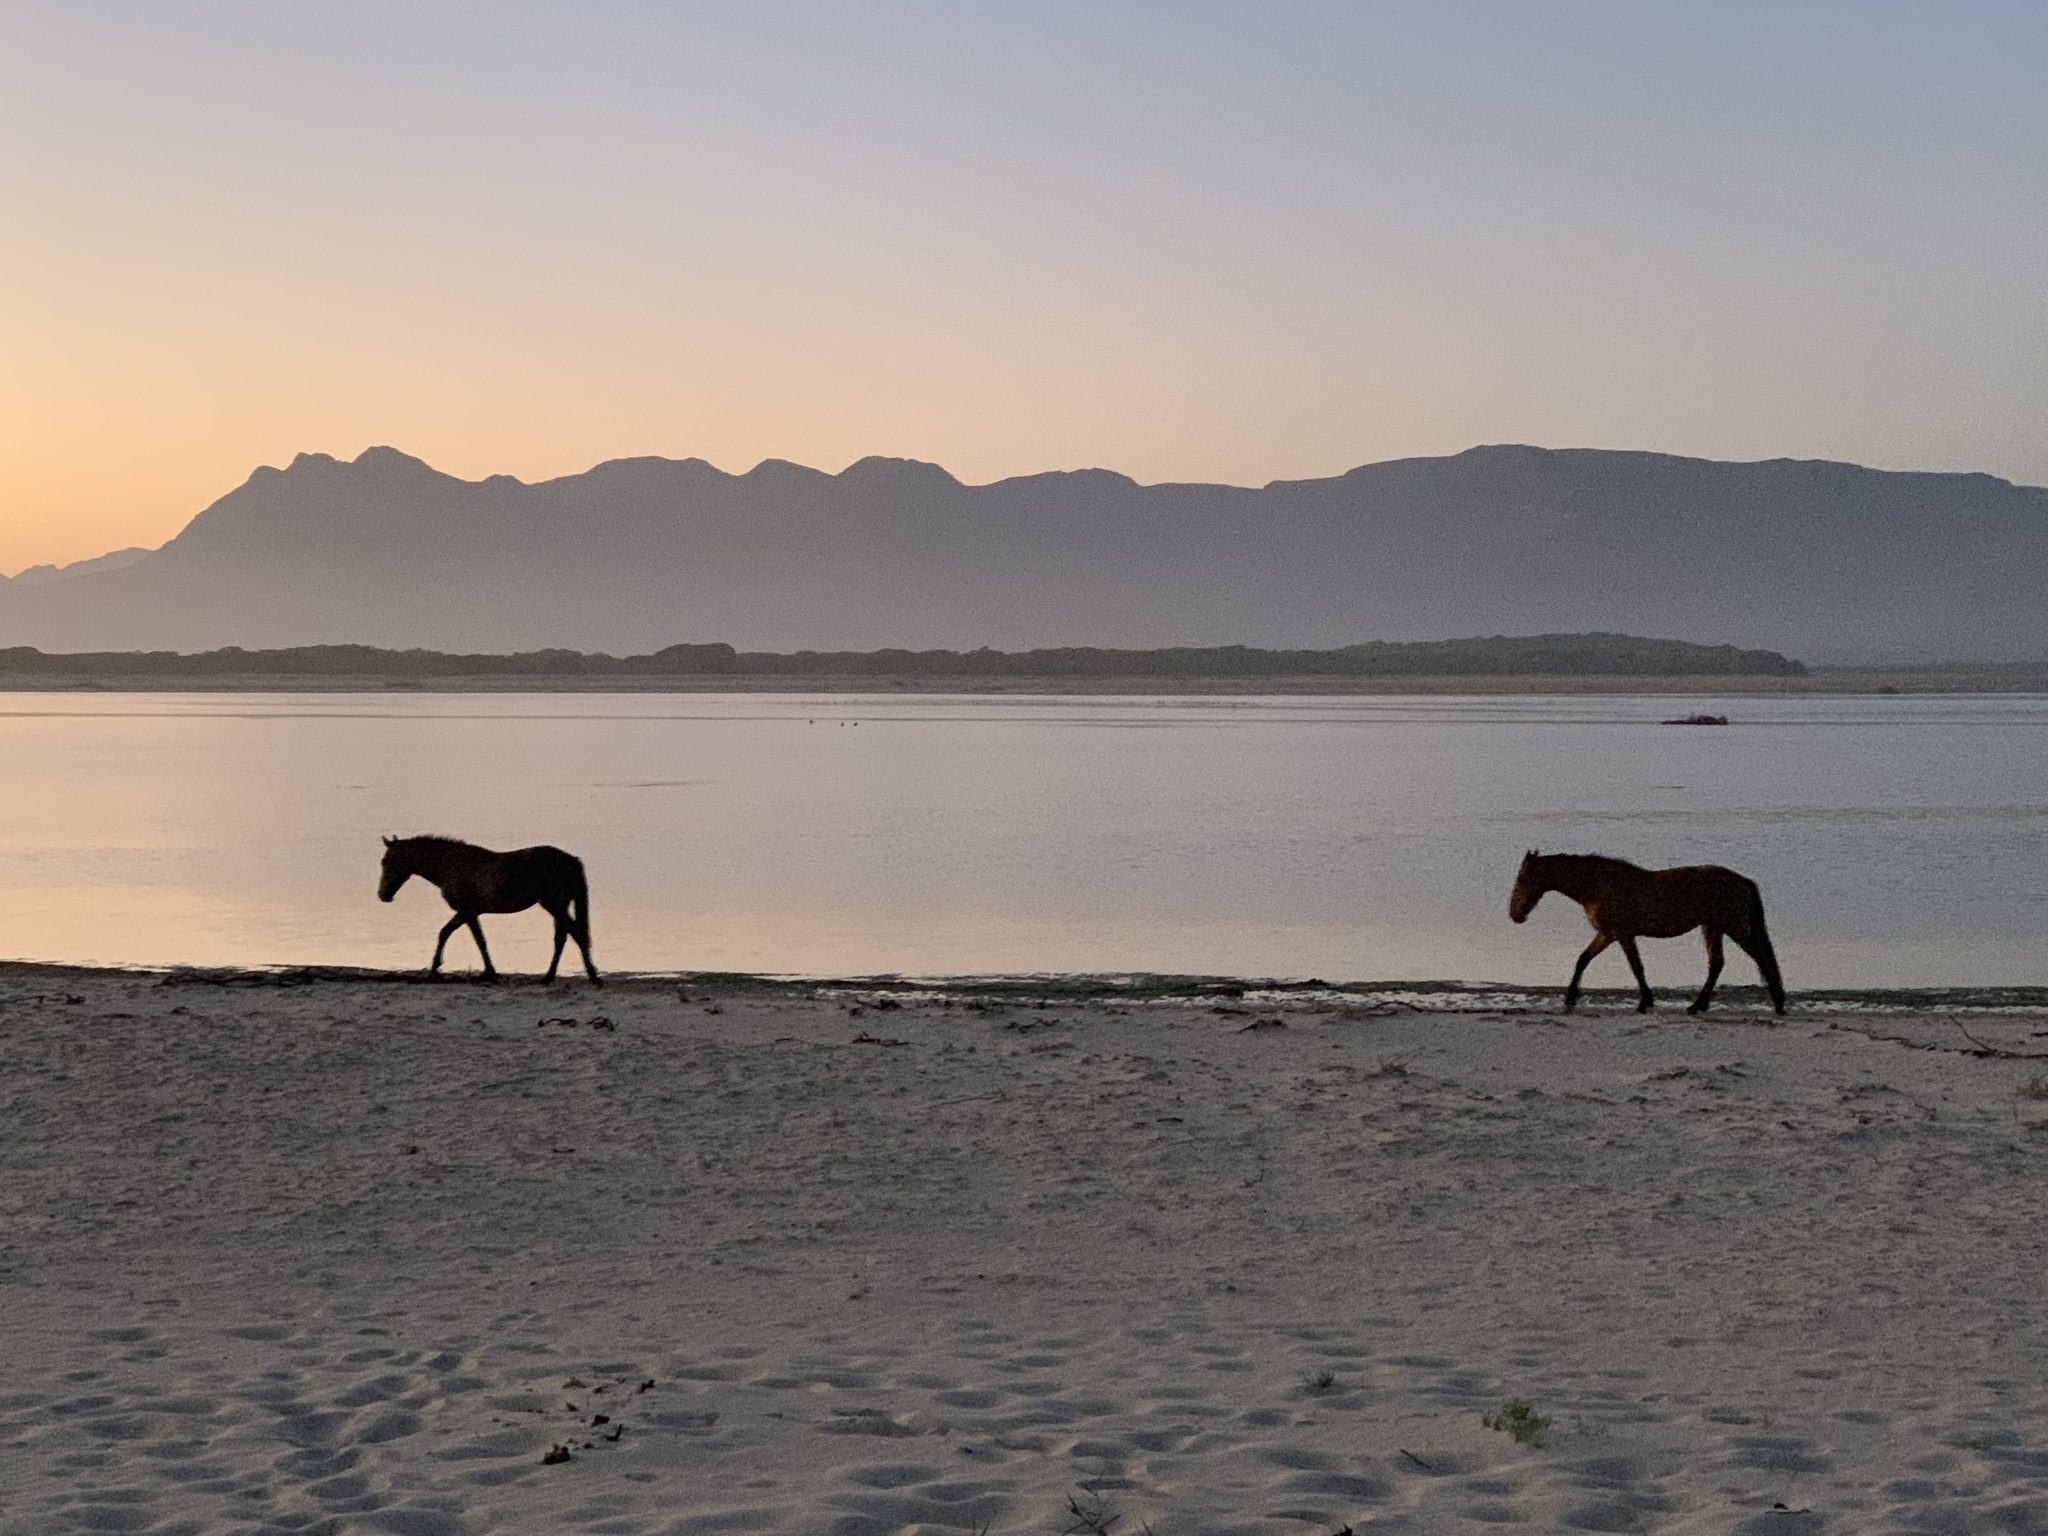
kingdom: Animalia
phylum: Chordata
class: Mammalia
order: Perissodactyla
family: Equidae
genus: Equus
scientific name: Equus caballus
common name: Horse
